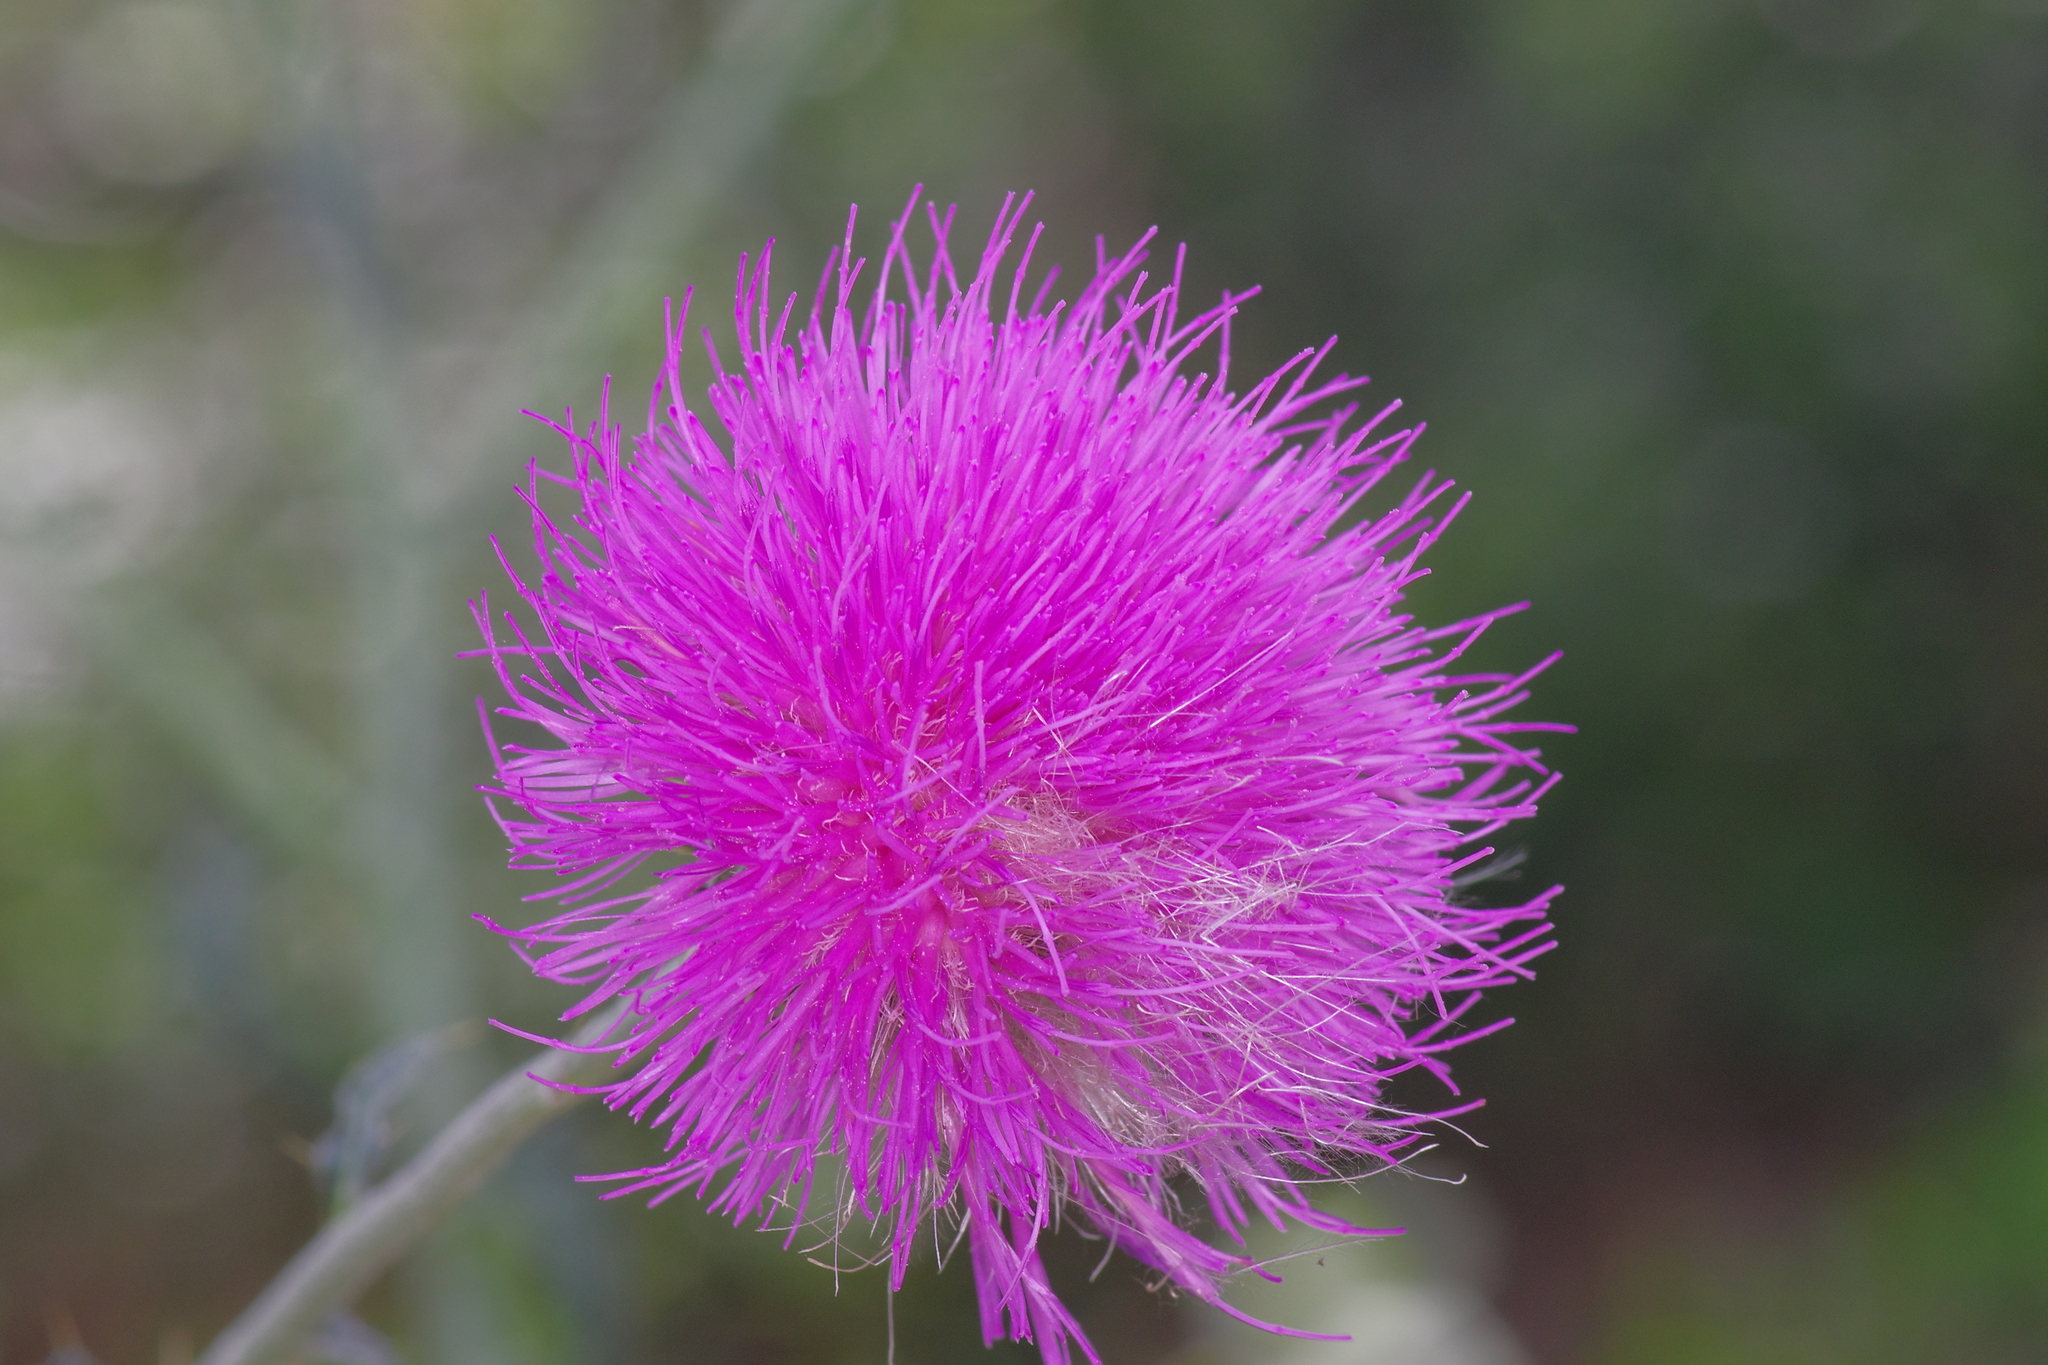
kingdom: Plantae
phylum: Tracheophyta
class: Magnoliopsida
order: Asterales
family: Asteraceae
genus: Cirsium
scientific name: Cirsium texanum
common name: Texas purple thistle
